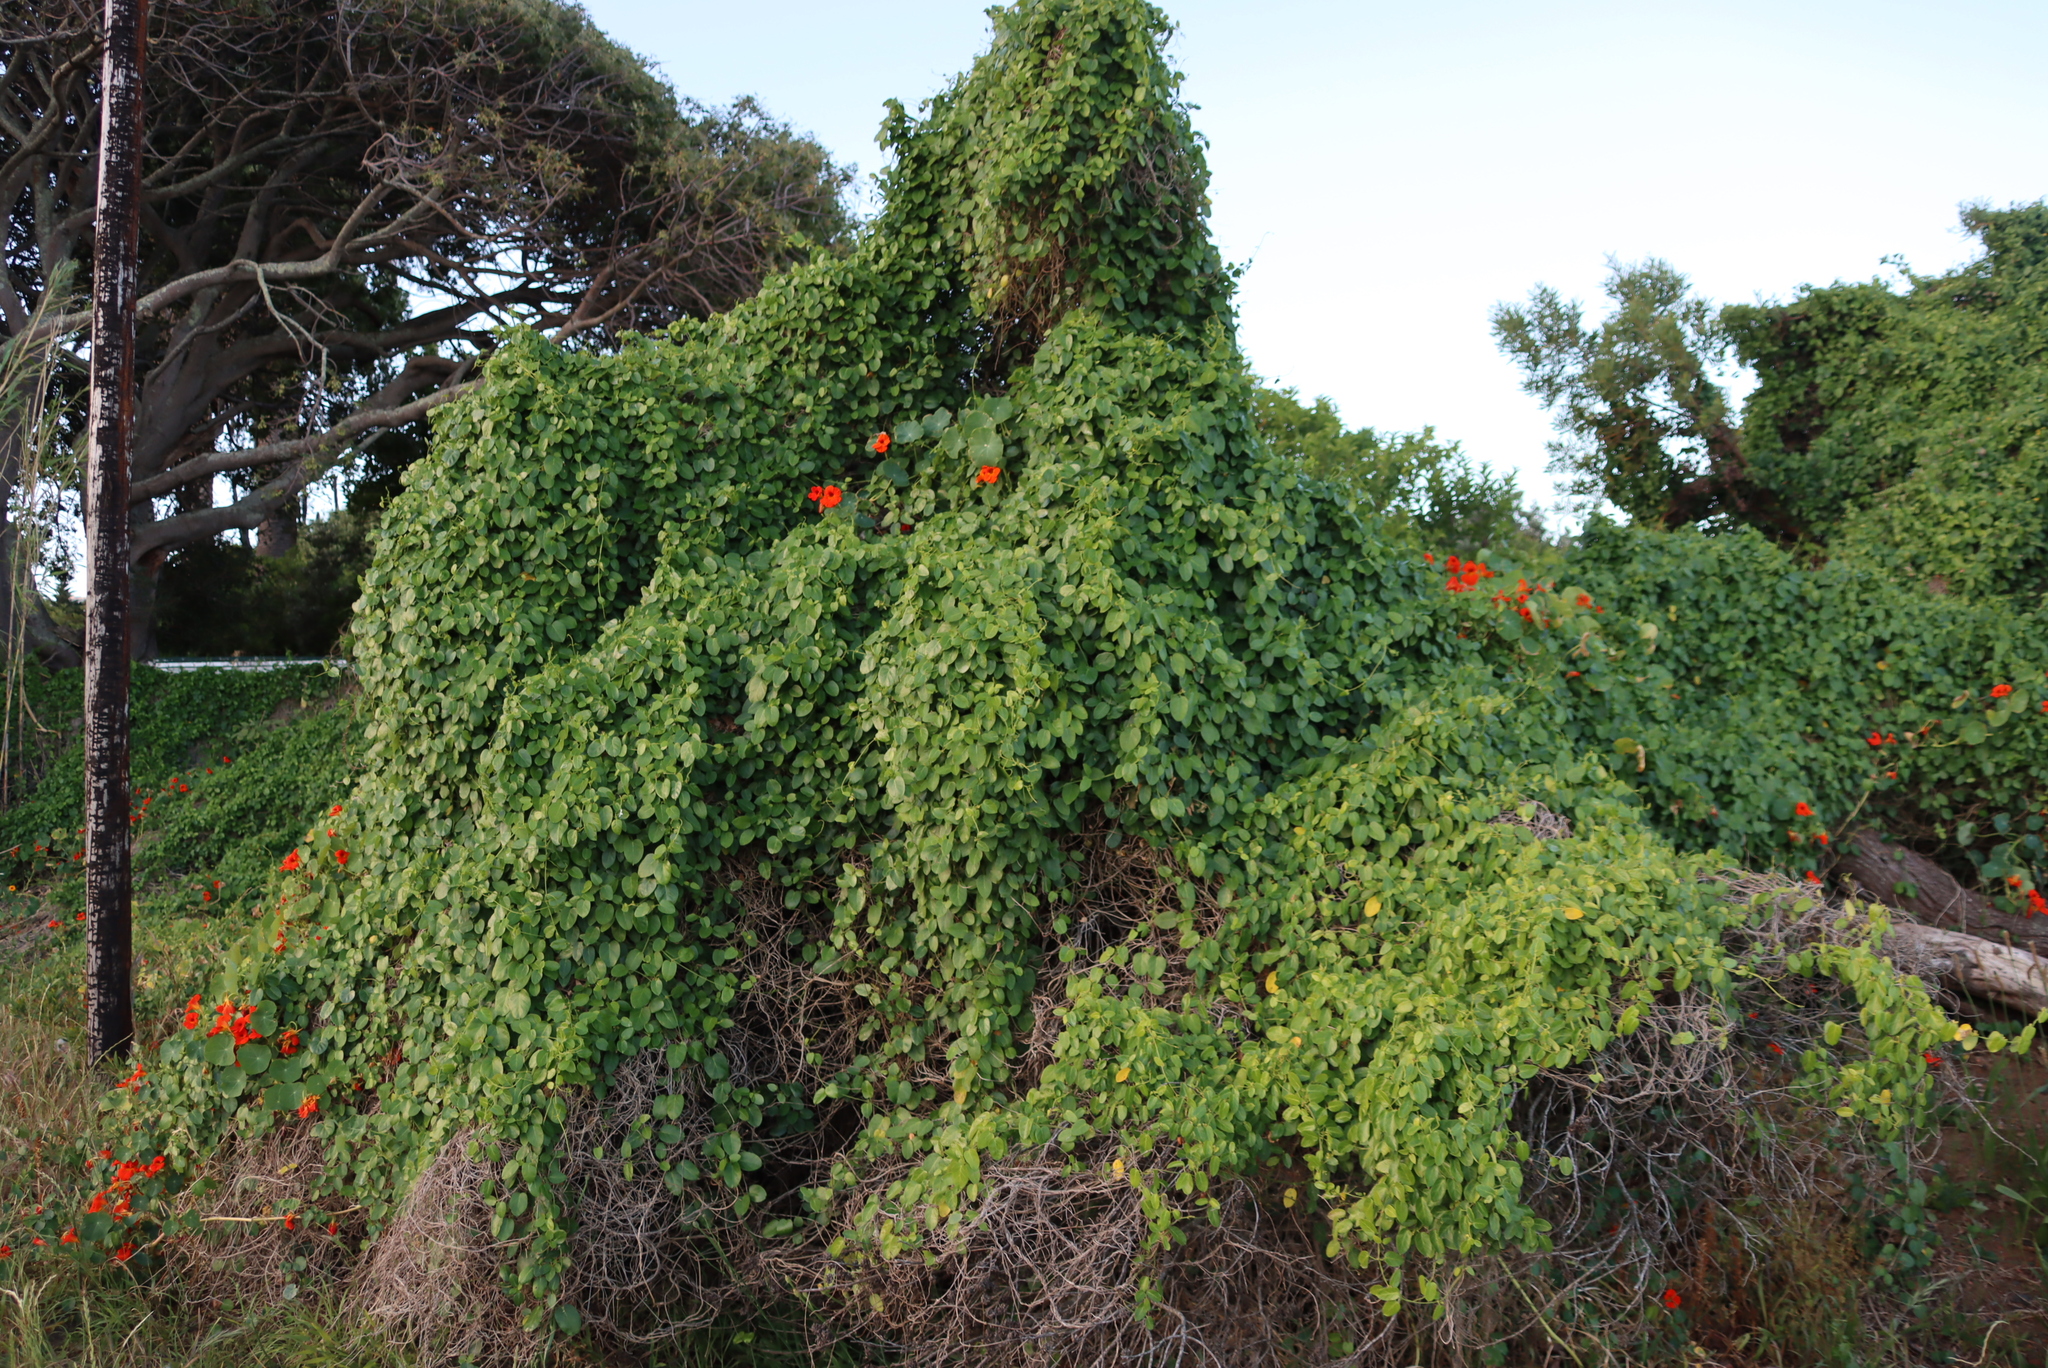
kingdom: Plantae
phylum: Tracheophyta
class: Magnoliopsida
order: Gentianales
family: Apocynaceae
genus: Cynanchum
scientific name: Cynanchum obtusifolium
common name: Monkey-rope
